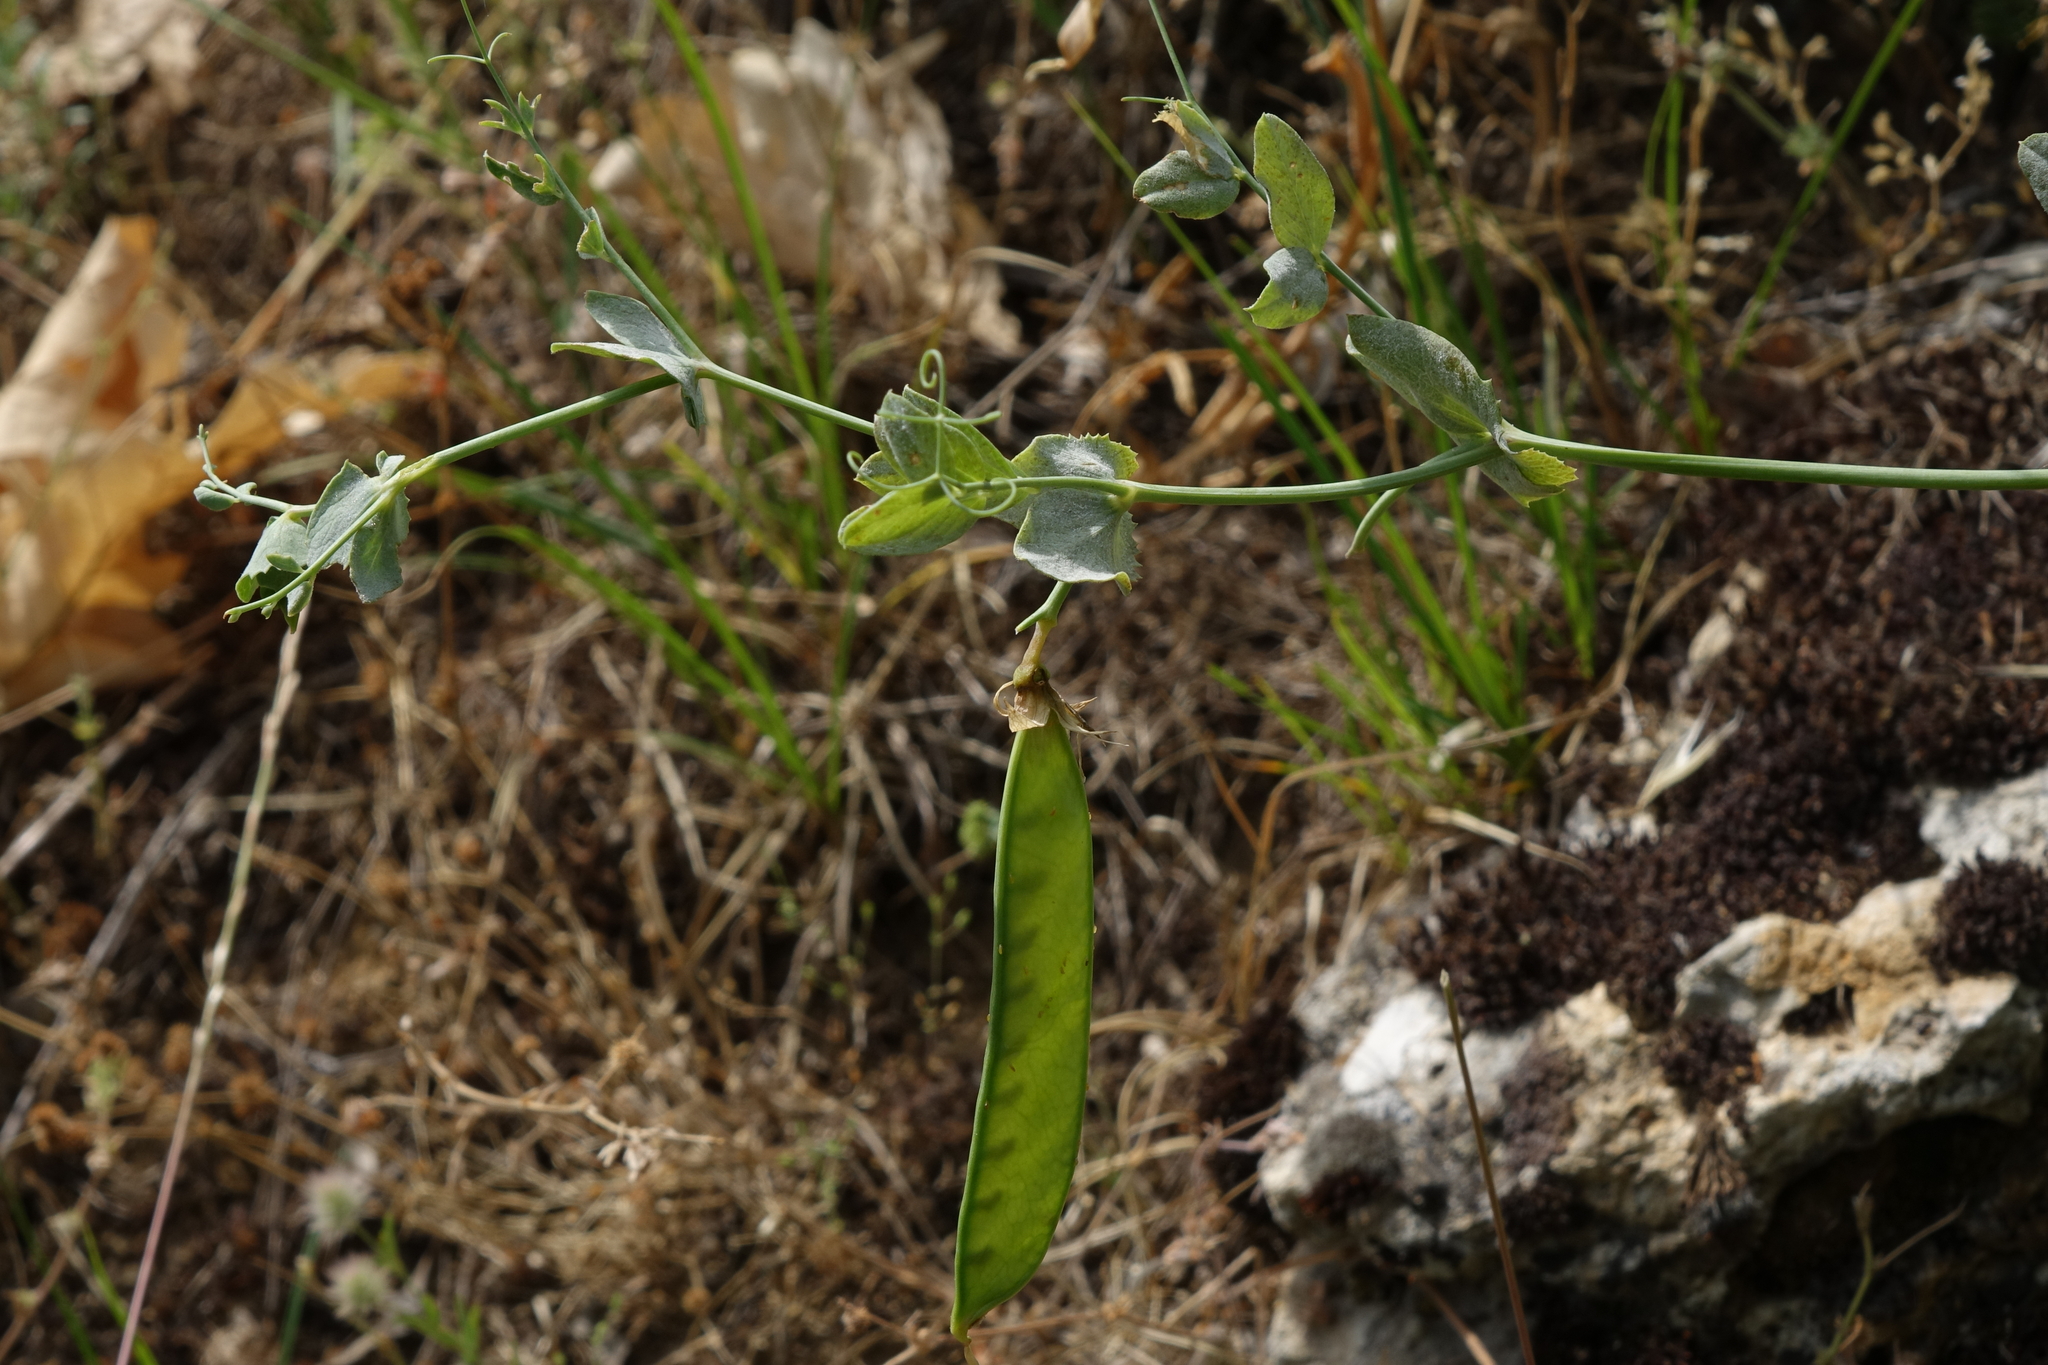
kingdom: Plantae
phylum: Tracheophyta
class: Magnoliopsida
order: Fabales
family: Fabaceae
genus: Lathyrus
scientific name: Lathyrus oleraceus
